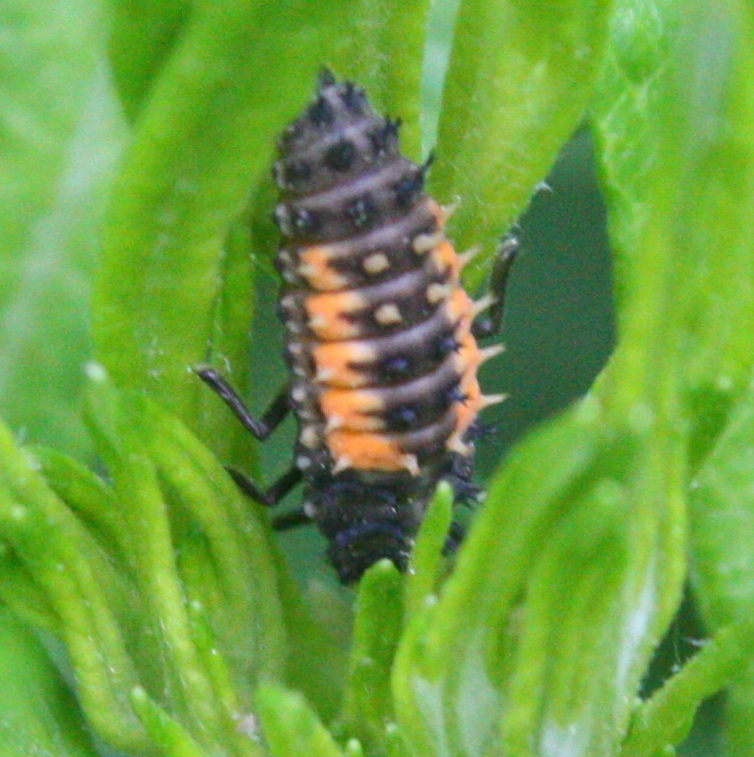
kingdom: Animalia
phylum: Arthropoda
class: Insecta
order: Coleoptera
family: Coccinellidae
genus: Harmonia
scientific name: Harmonia axyridis
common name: Harlequin ladybird
